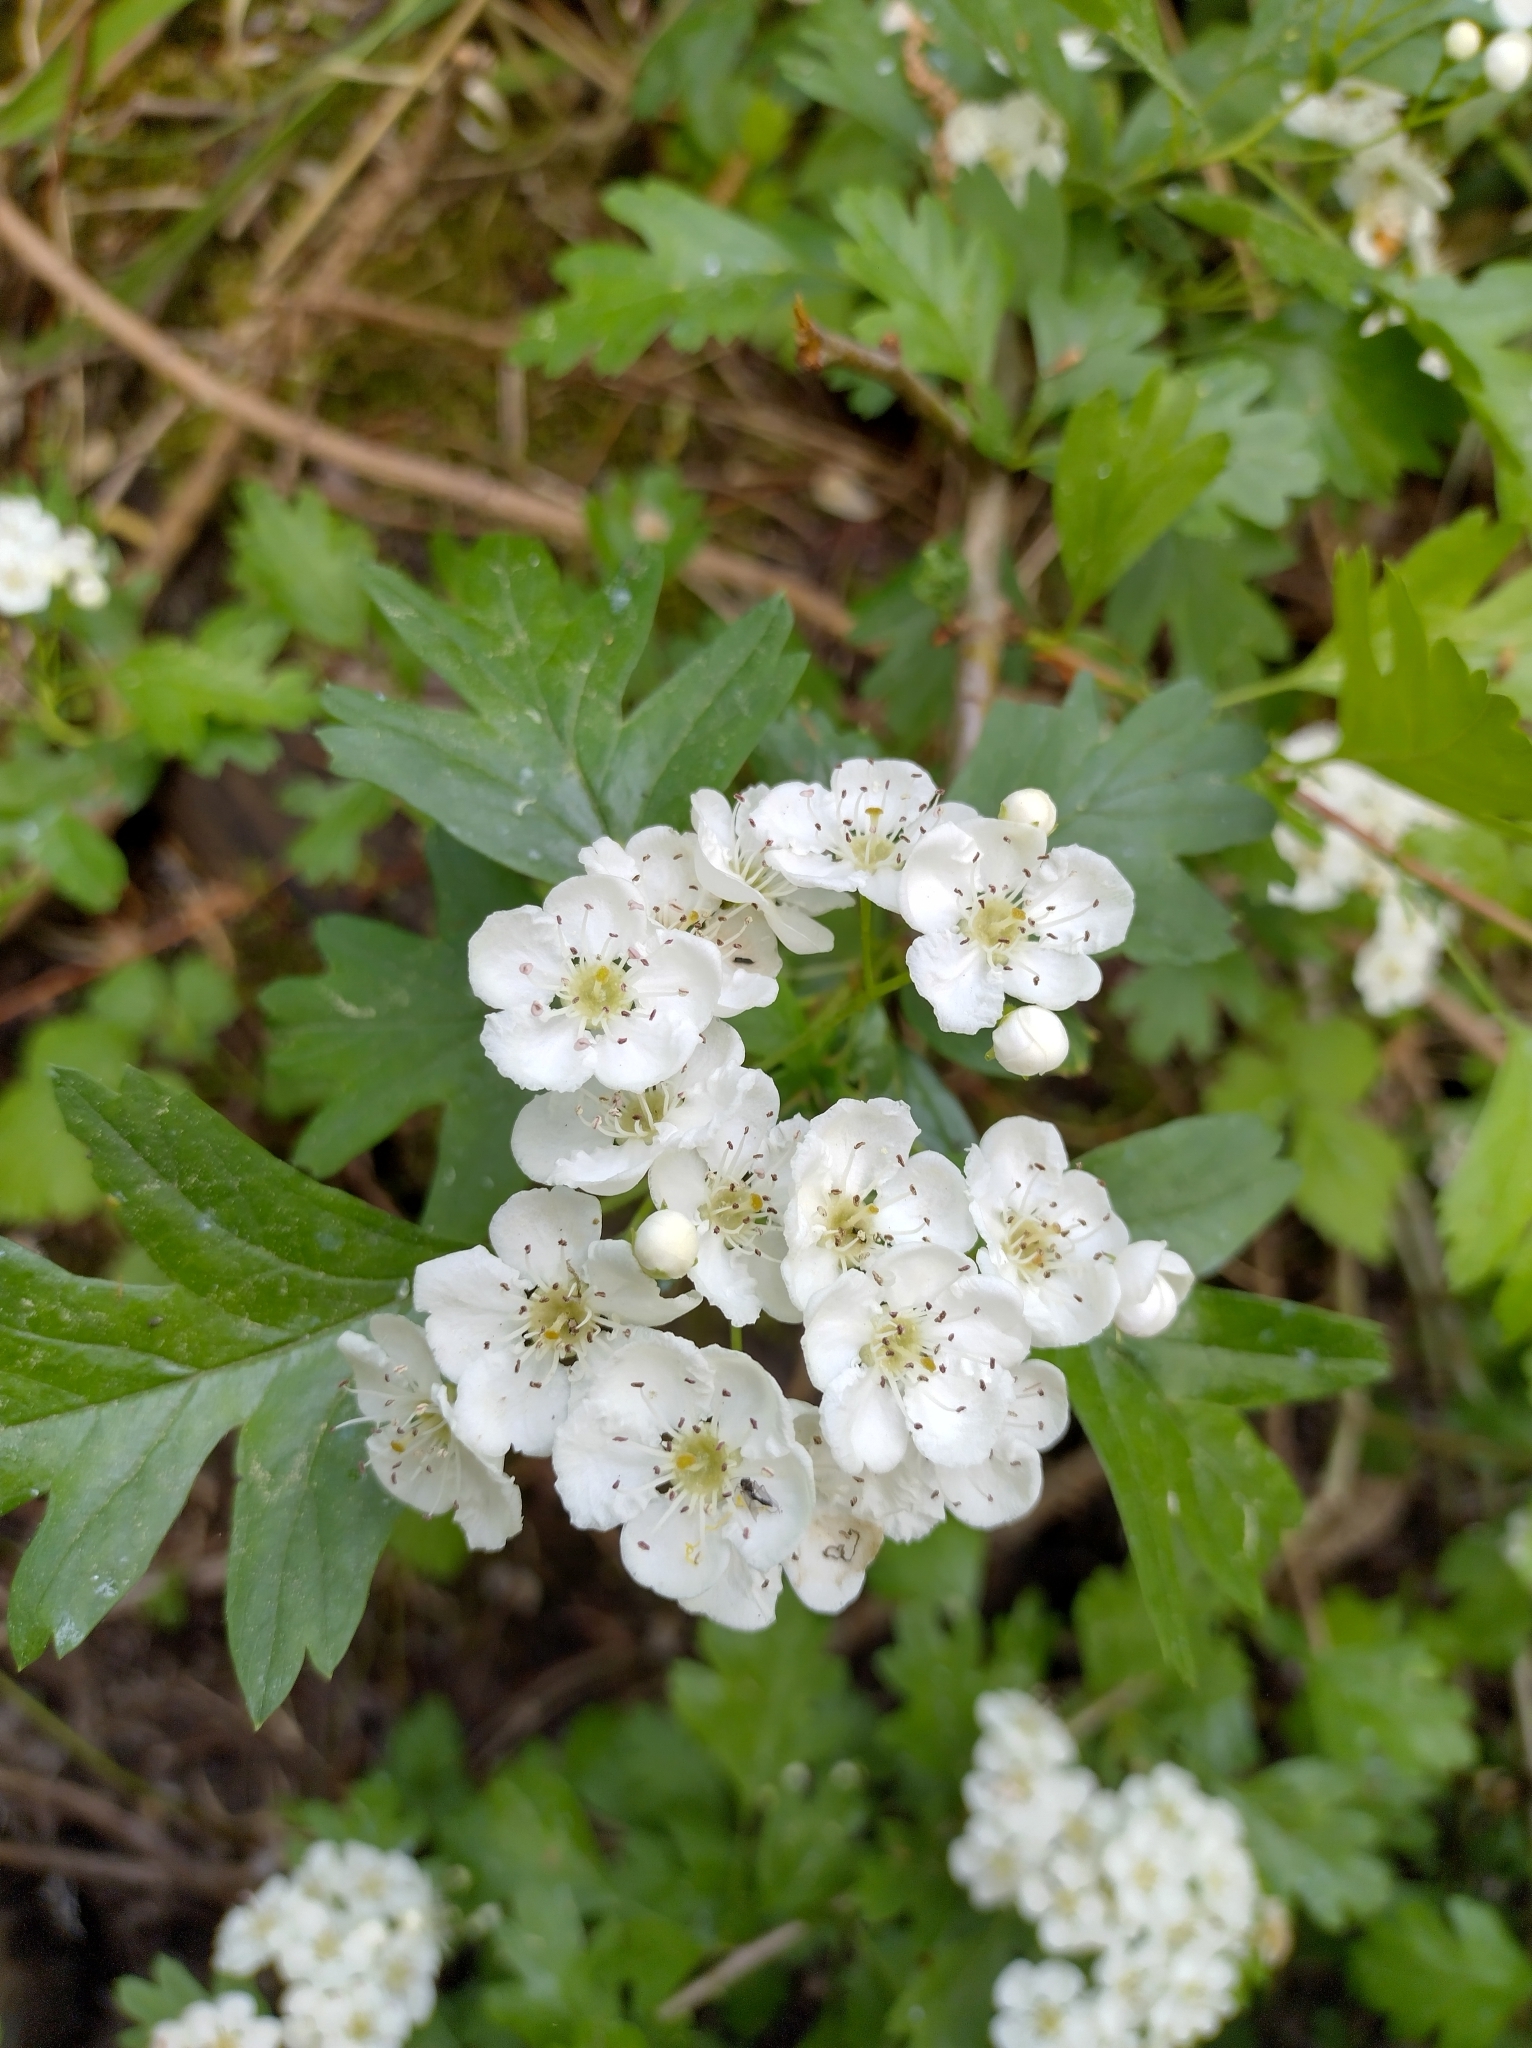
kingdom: Plantae
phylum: Tracheophyta
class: Magnoliopsida
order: Rosales
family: Rosaceae
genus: Crataegus
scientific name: Crataegus monogyna
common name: Hawthorn
